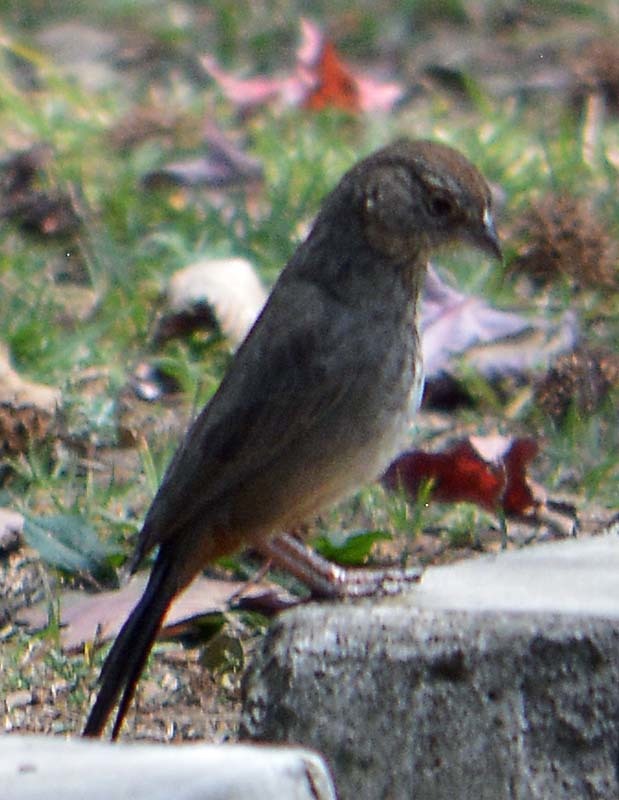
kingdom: Animalia
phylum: Chordata
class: Aves
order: Passeriformes
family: Passerellidae
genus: Melozone
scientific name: Melozone fusca
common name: Canyon towhee
